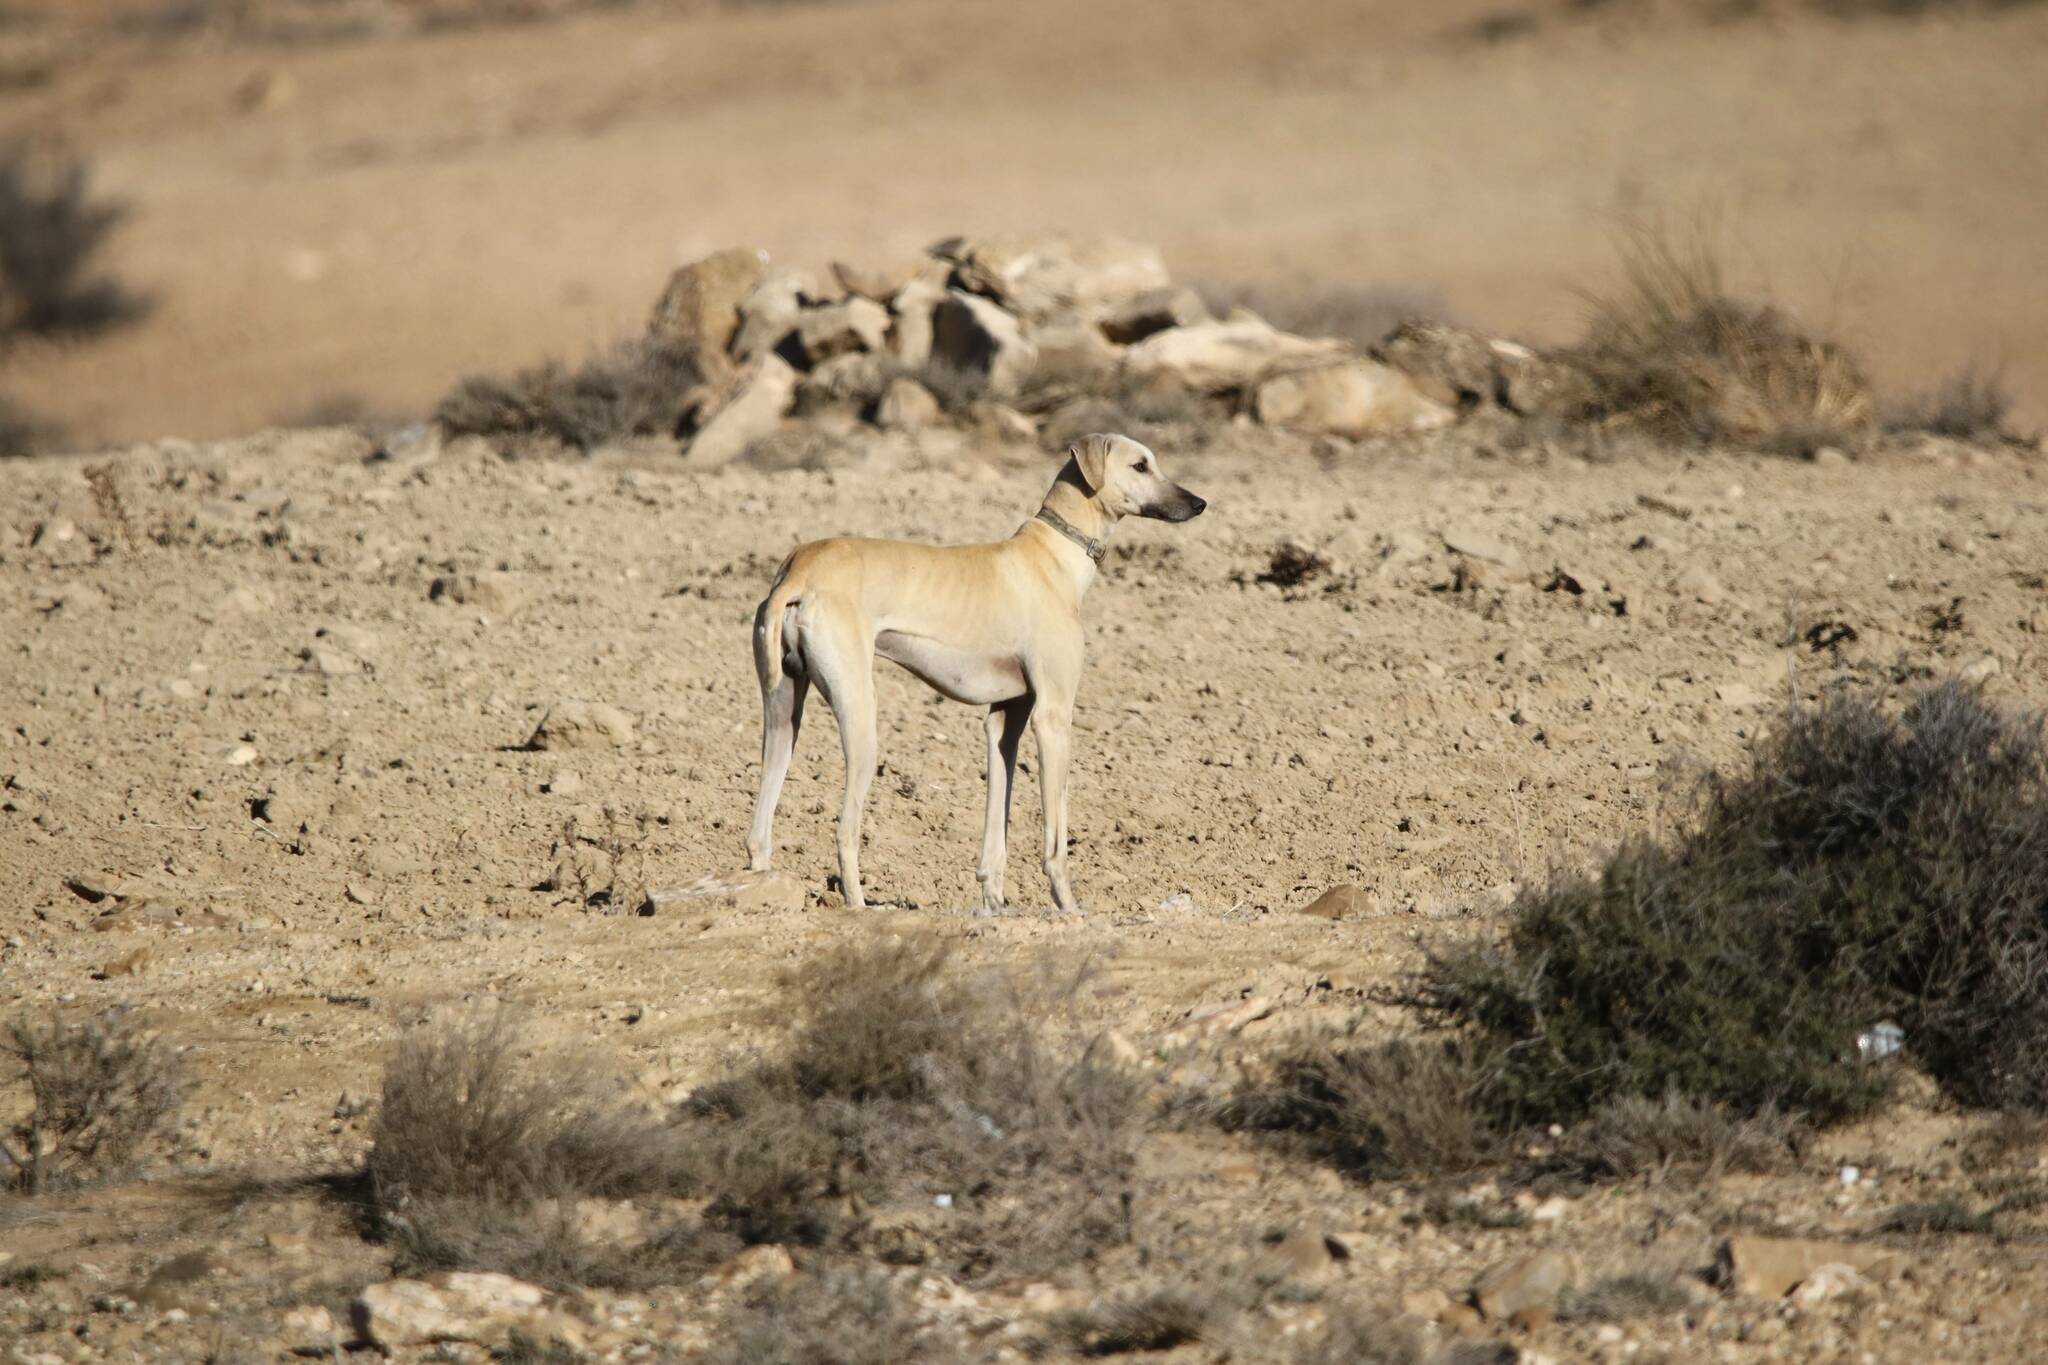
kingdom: Animalia
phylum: Chordata
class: Mammalia
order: Carnivora
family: Canidae
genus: Canis
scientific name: Canis lupus
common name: Gray wolf
